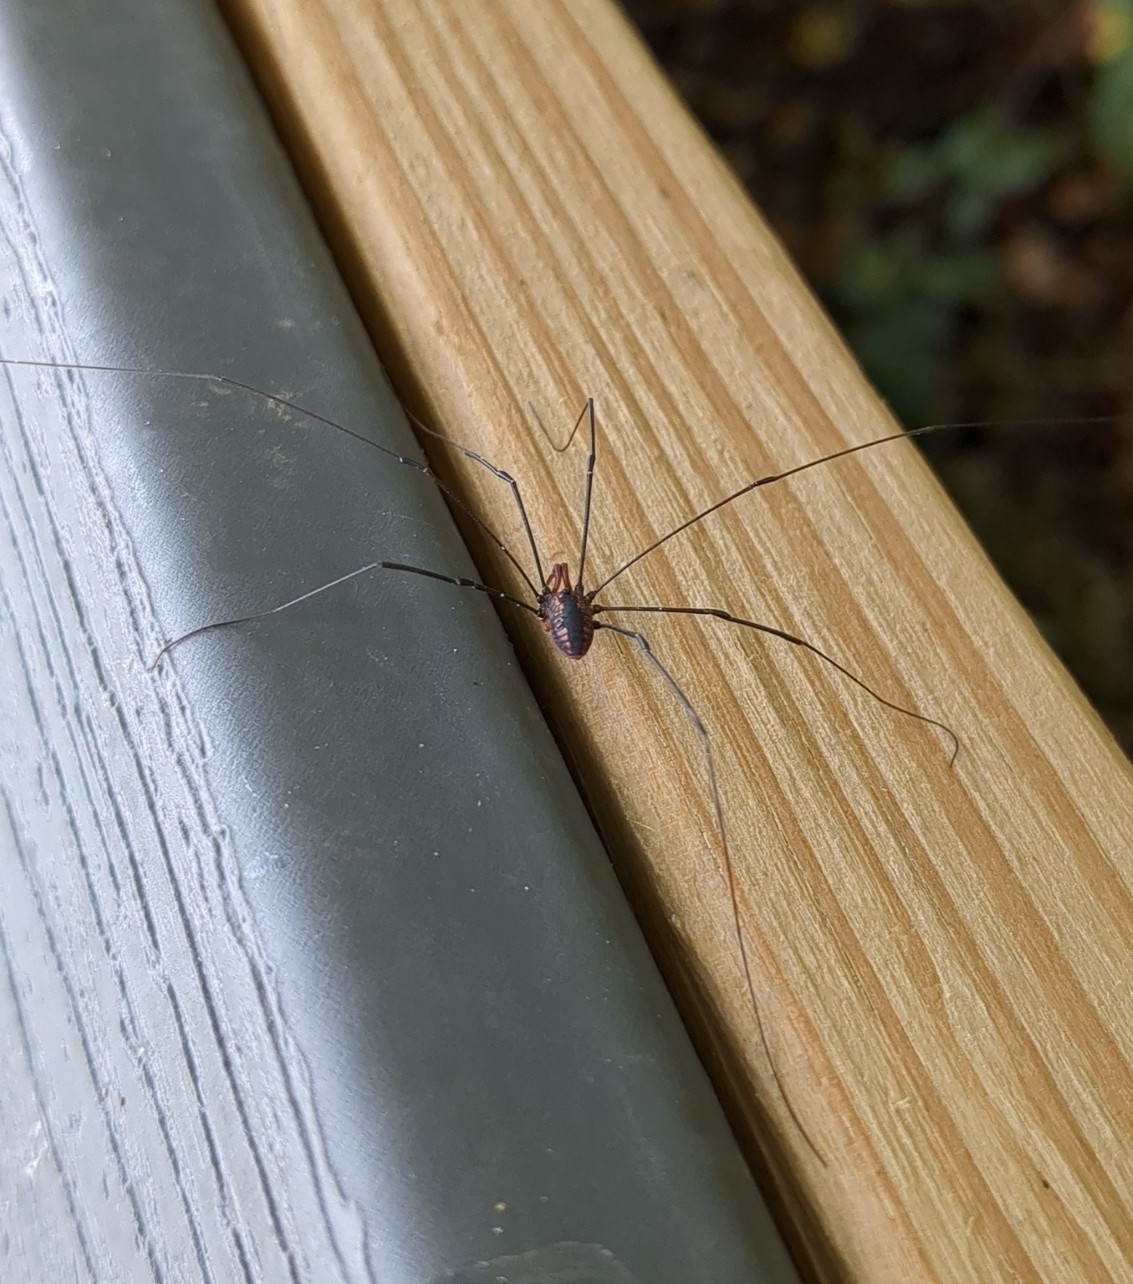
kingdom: Animalia
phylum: Arthropoda
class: Arachnida
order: Opiliones
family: Sclerosomatidae
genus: Leiobunum
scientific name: Leiobunum vittatum
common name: Eastern harvestman
